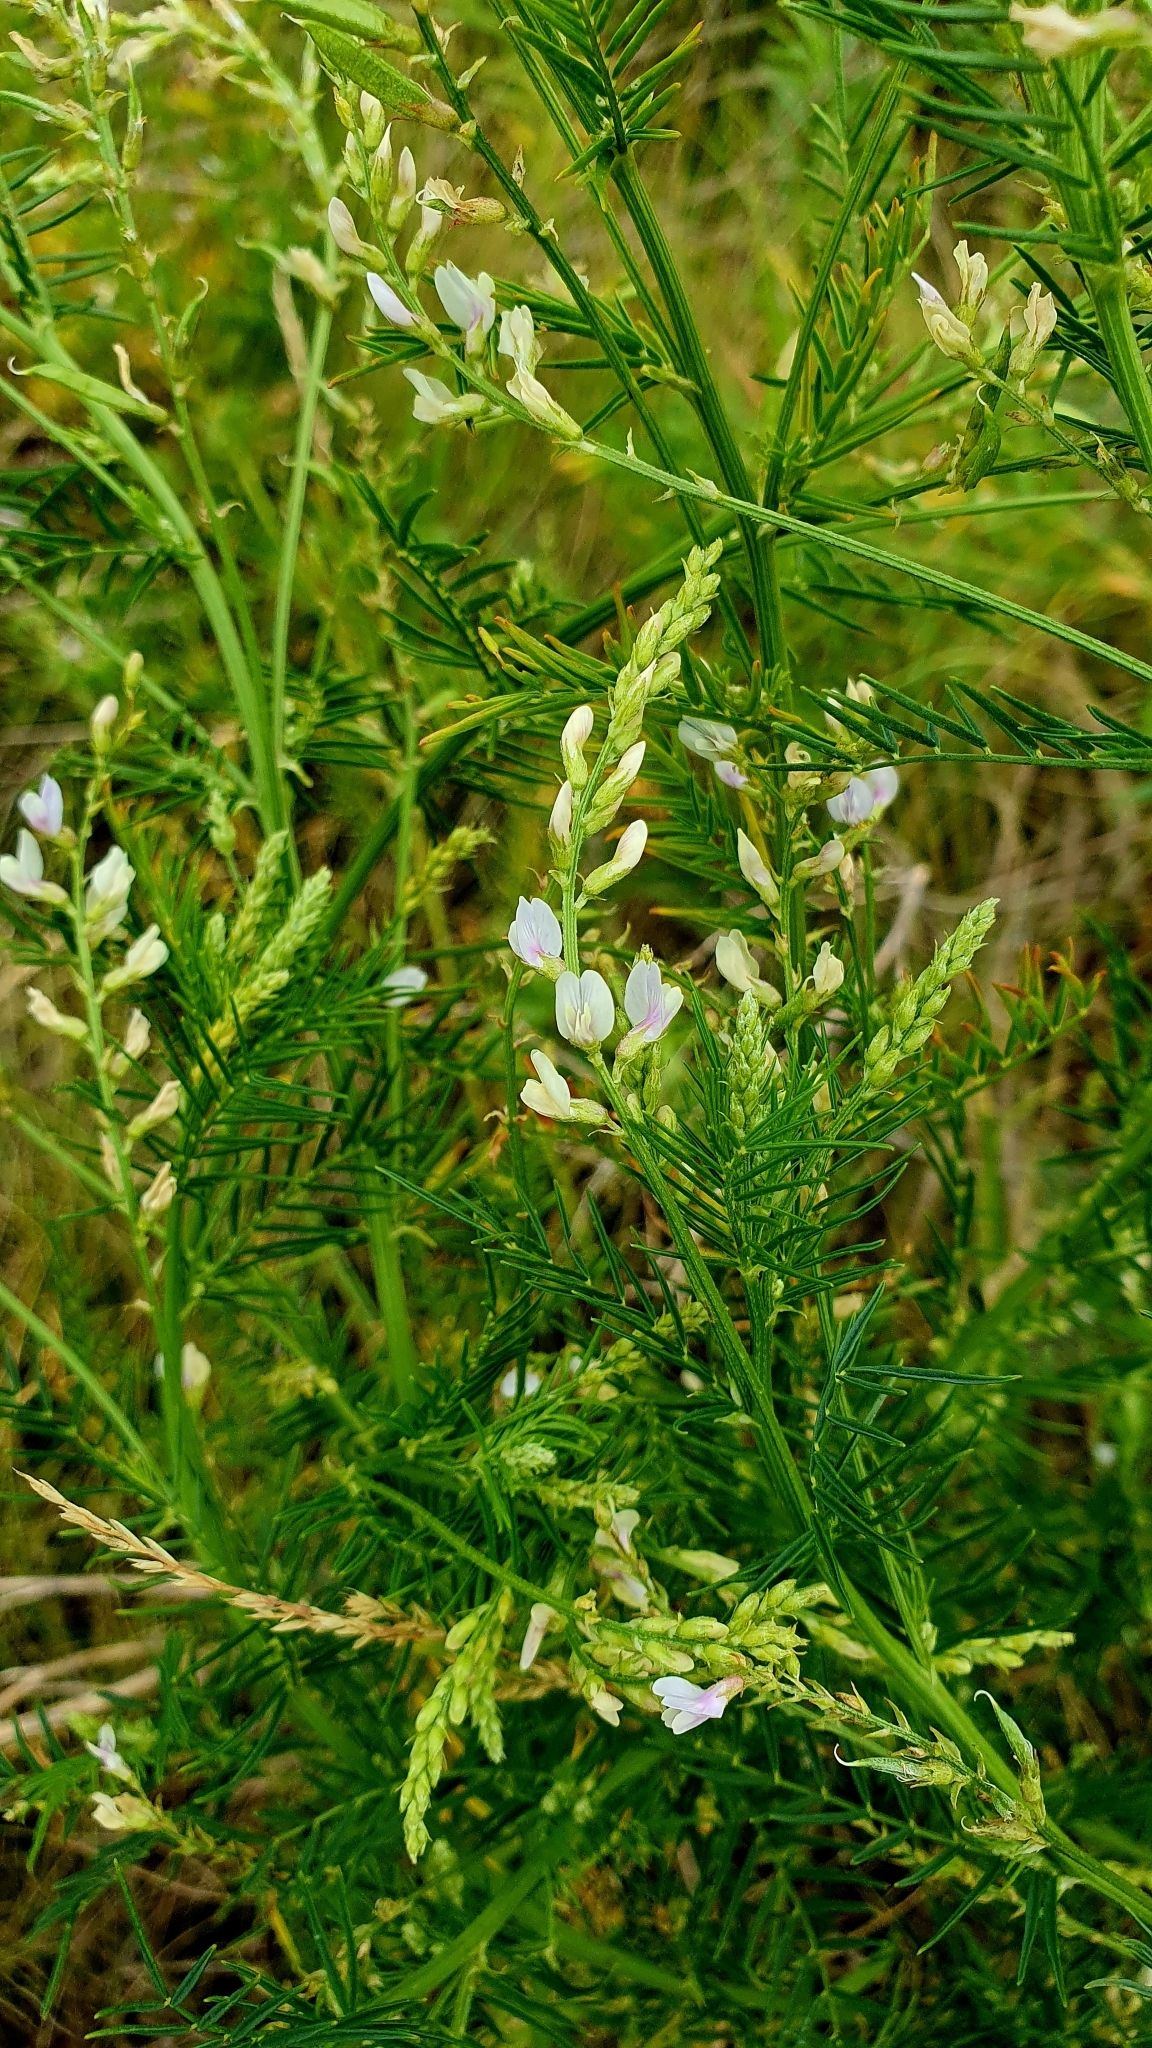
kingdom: Plantae
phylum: Tracheophyta
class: Magnoliopsida
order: Fabales
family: Fabaceae
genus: Astragalus
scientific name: Astragalus sulcatus
